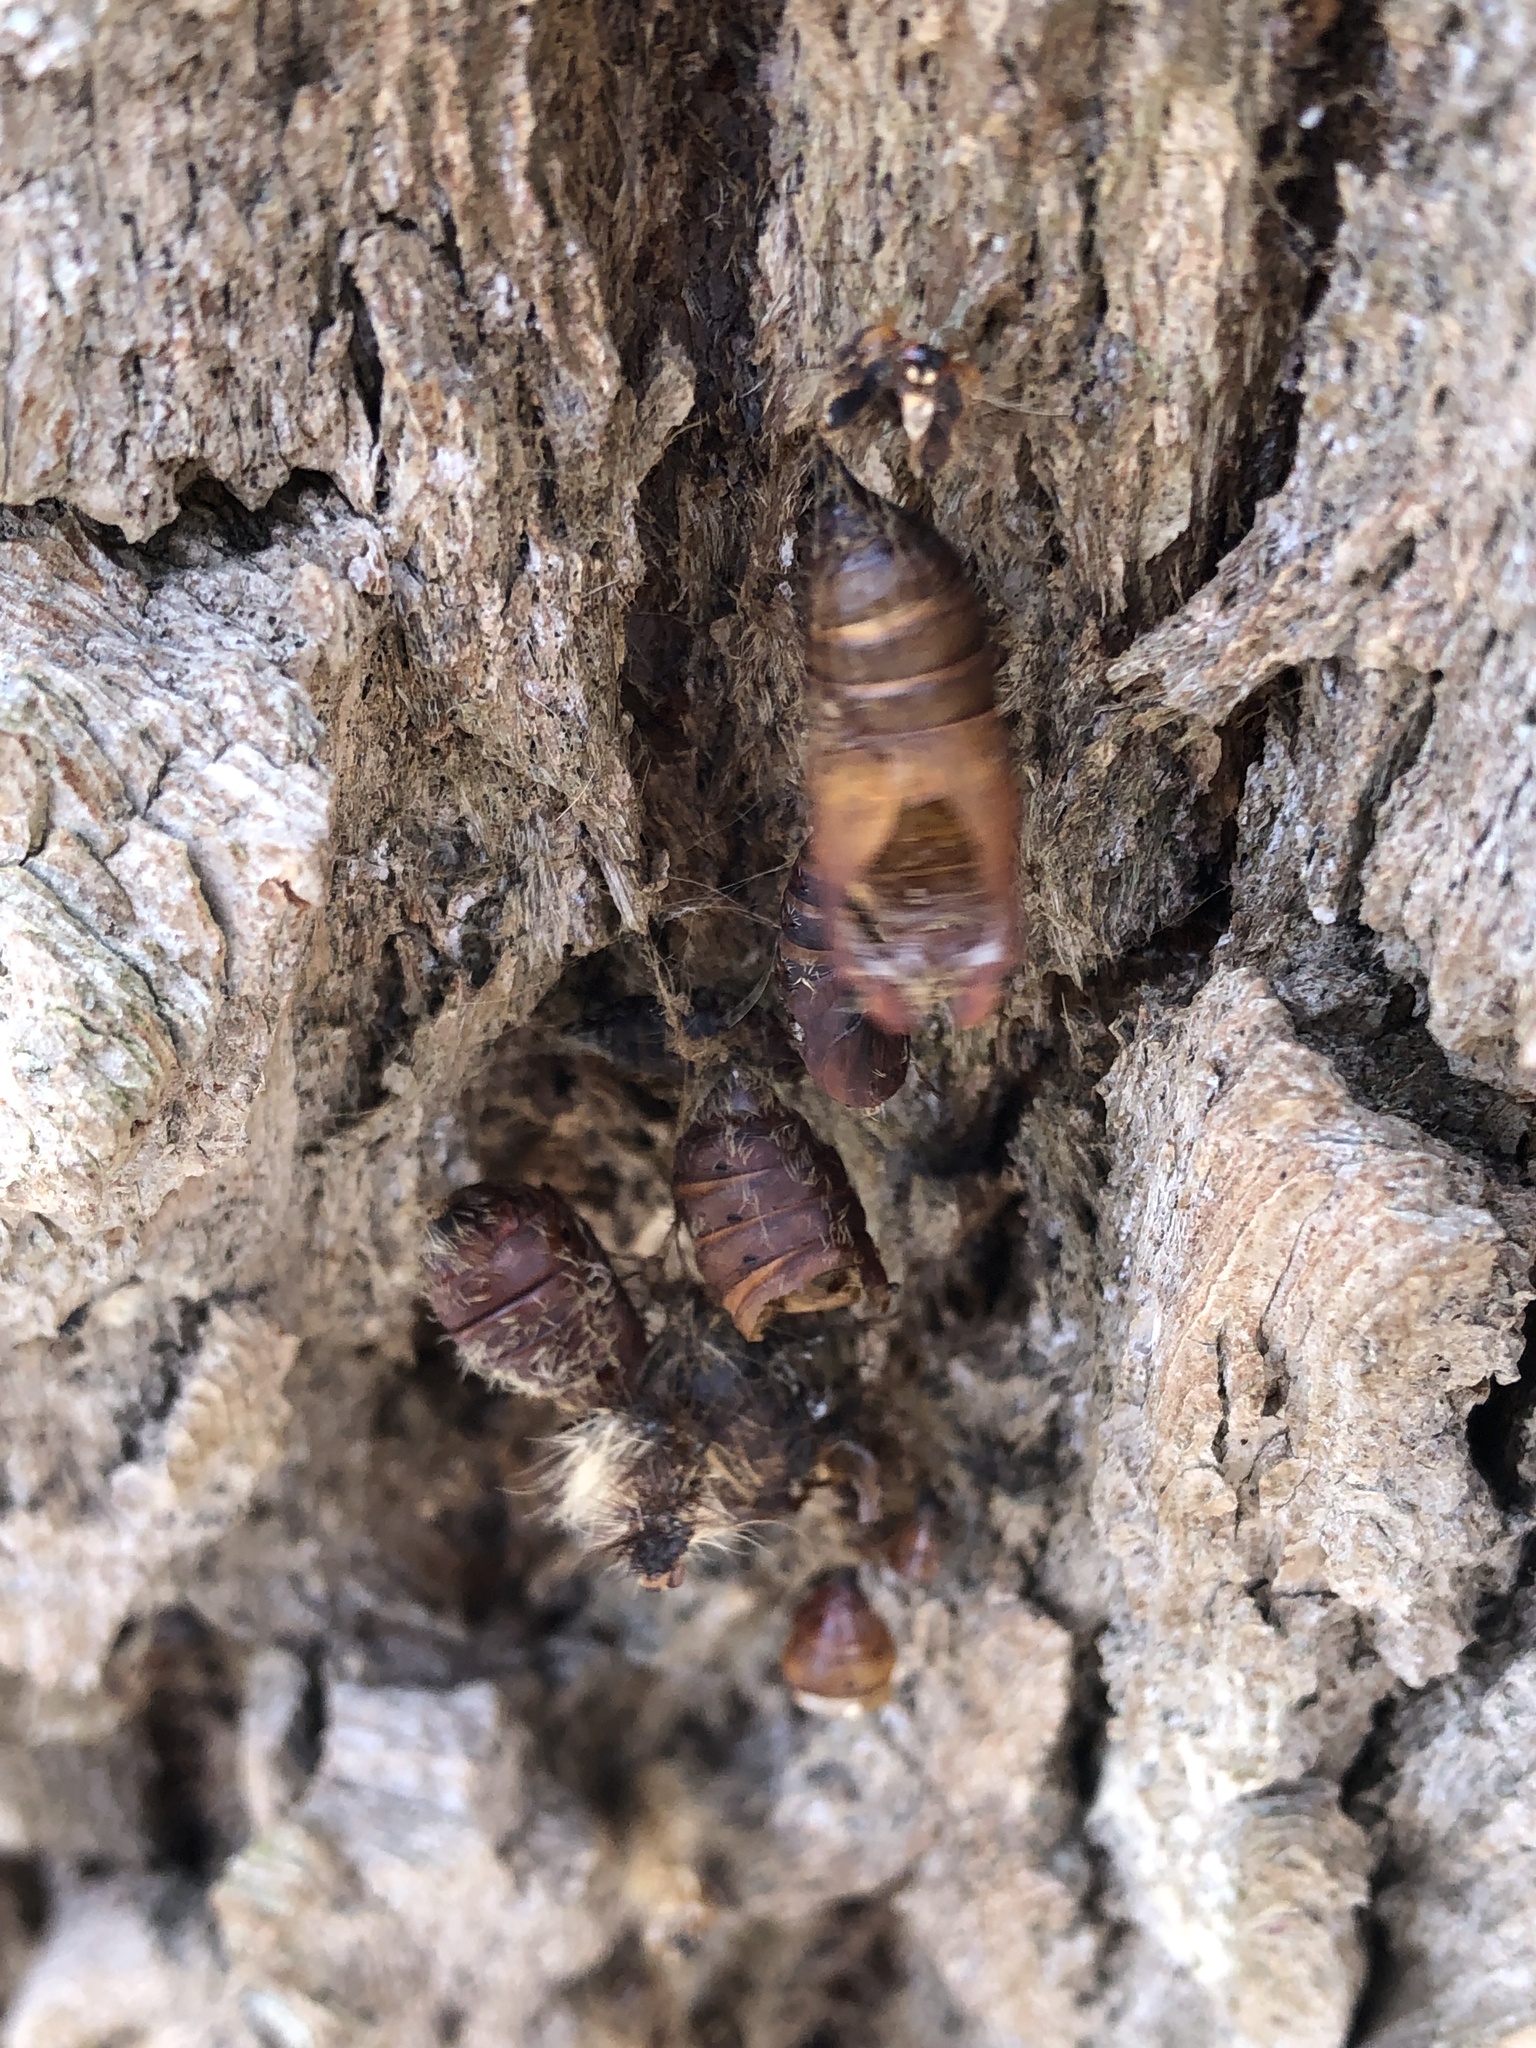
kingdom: Animalia
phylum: Arthropoda
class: Insecta
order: Lepidoptera
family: Erebidae
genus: Lymantria
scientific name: Lymantria dispar
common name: Gypsy moth
